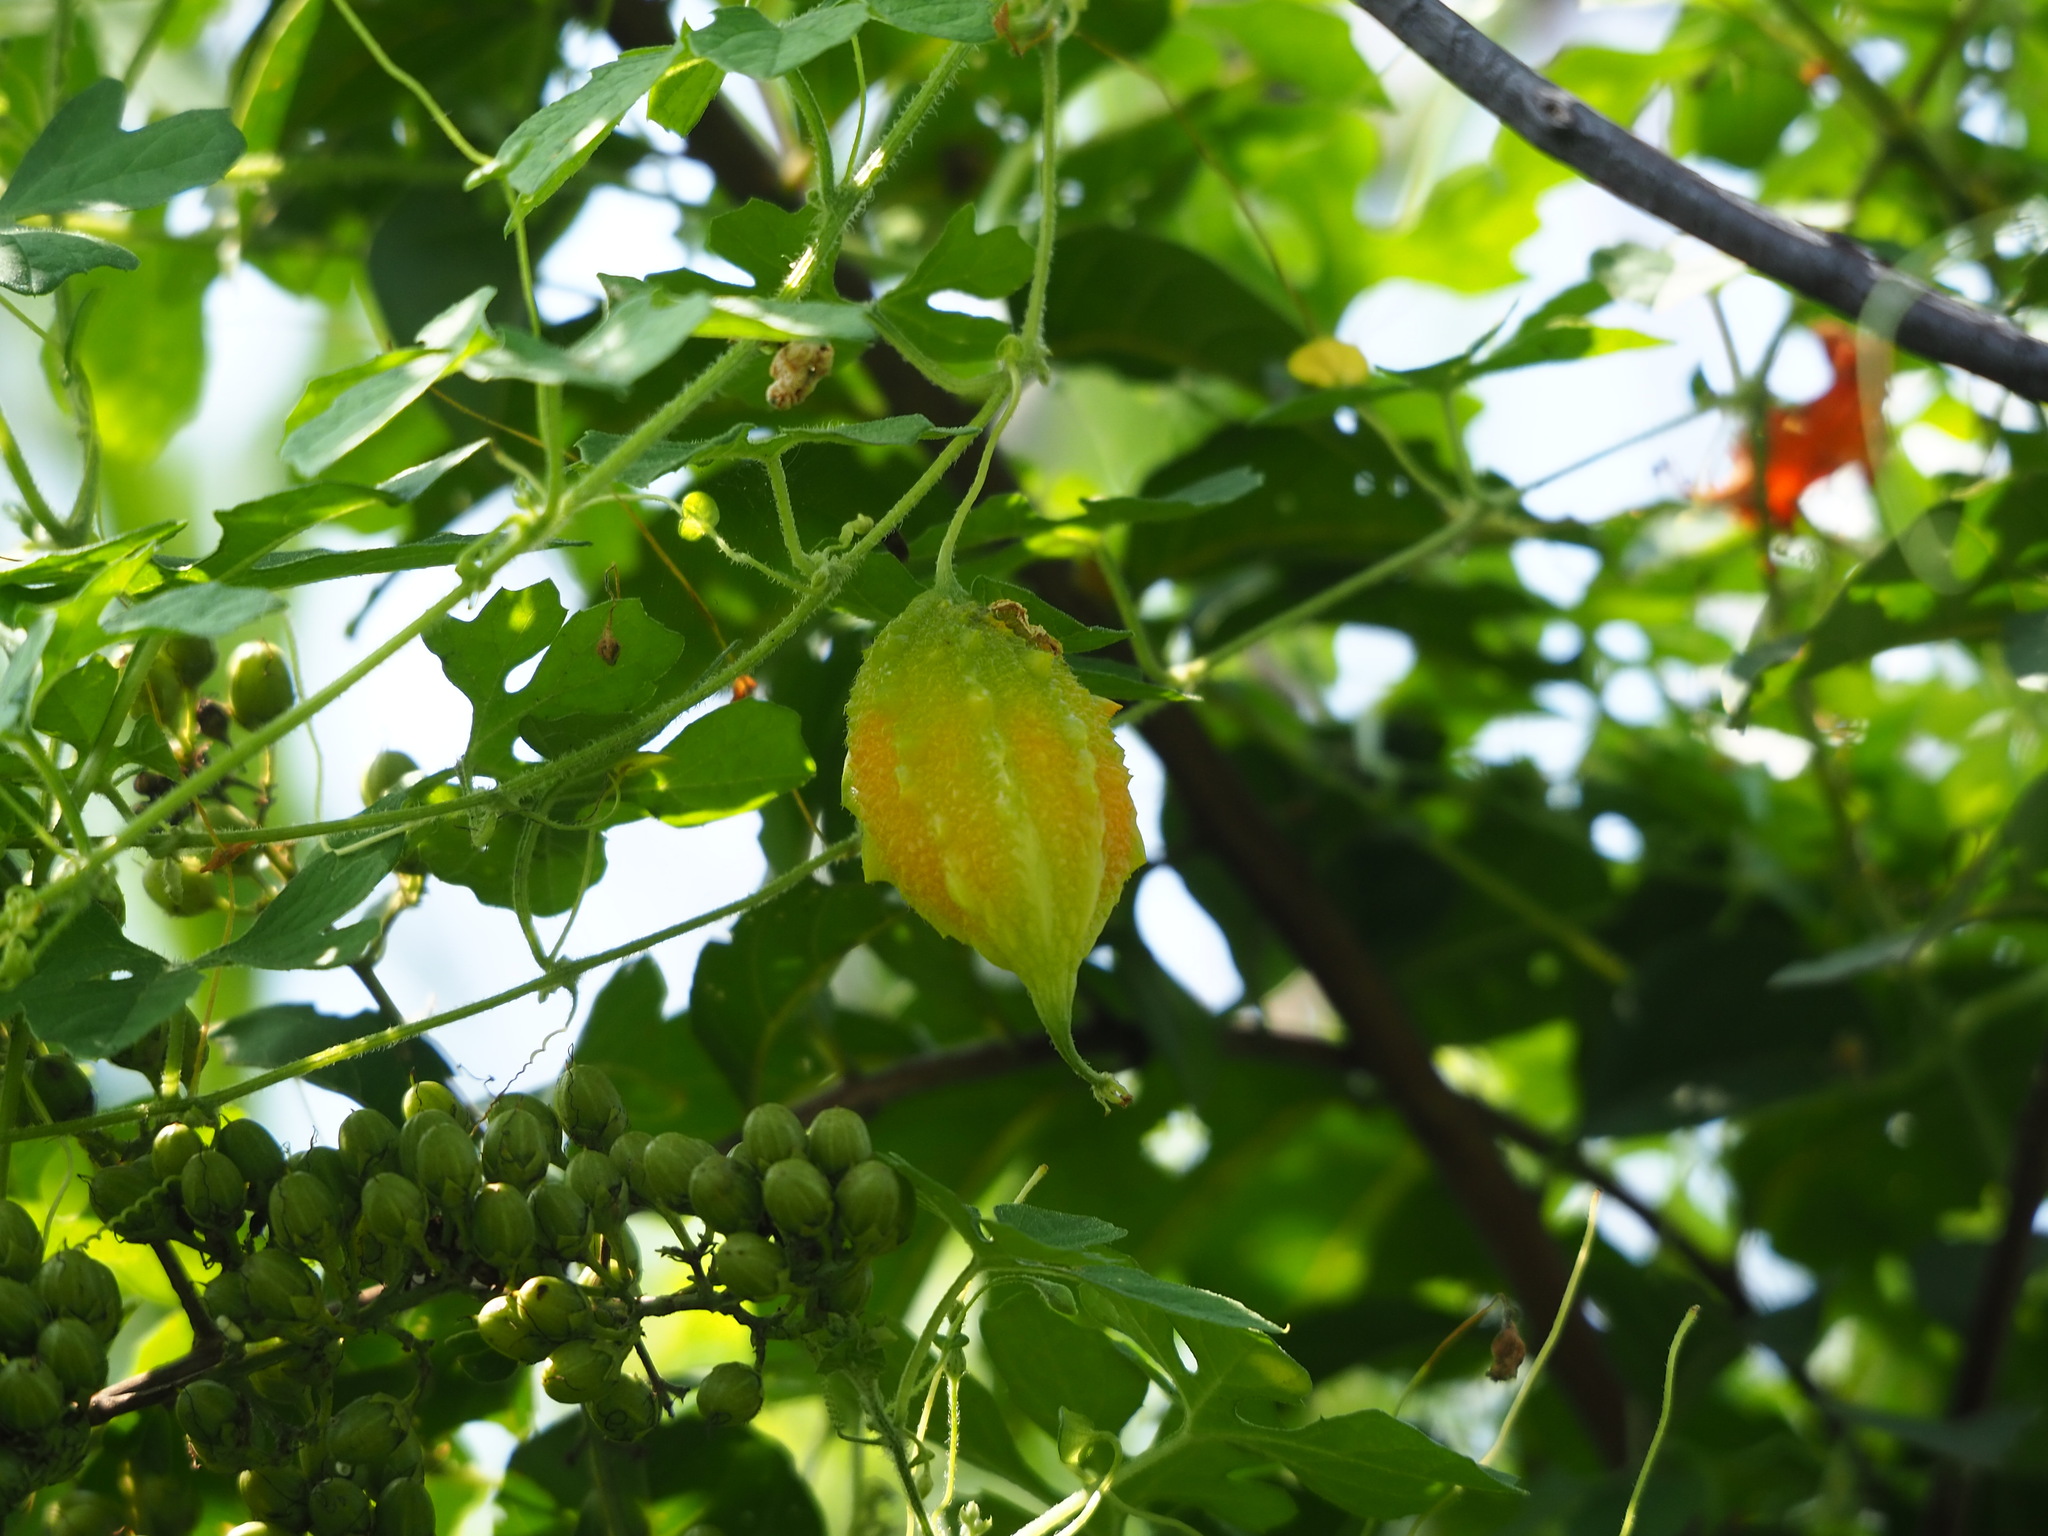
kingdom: Plantae
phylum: Tracheophyta
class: Magnoliopsida
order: Cucurbitales
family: Cucurbitaceae
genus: Momordica
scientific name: Momordica charantia
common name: Balsampear
